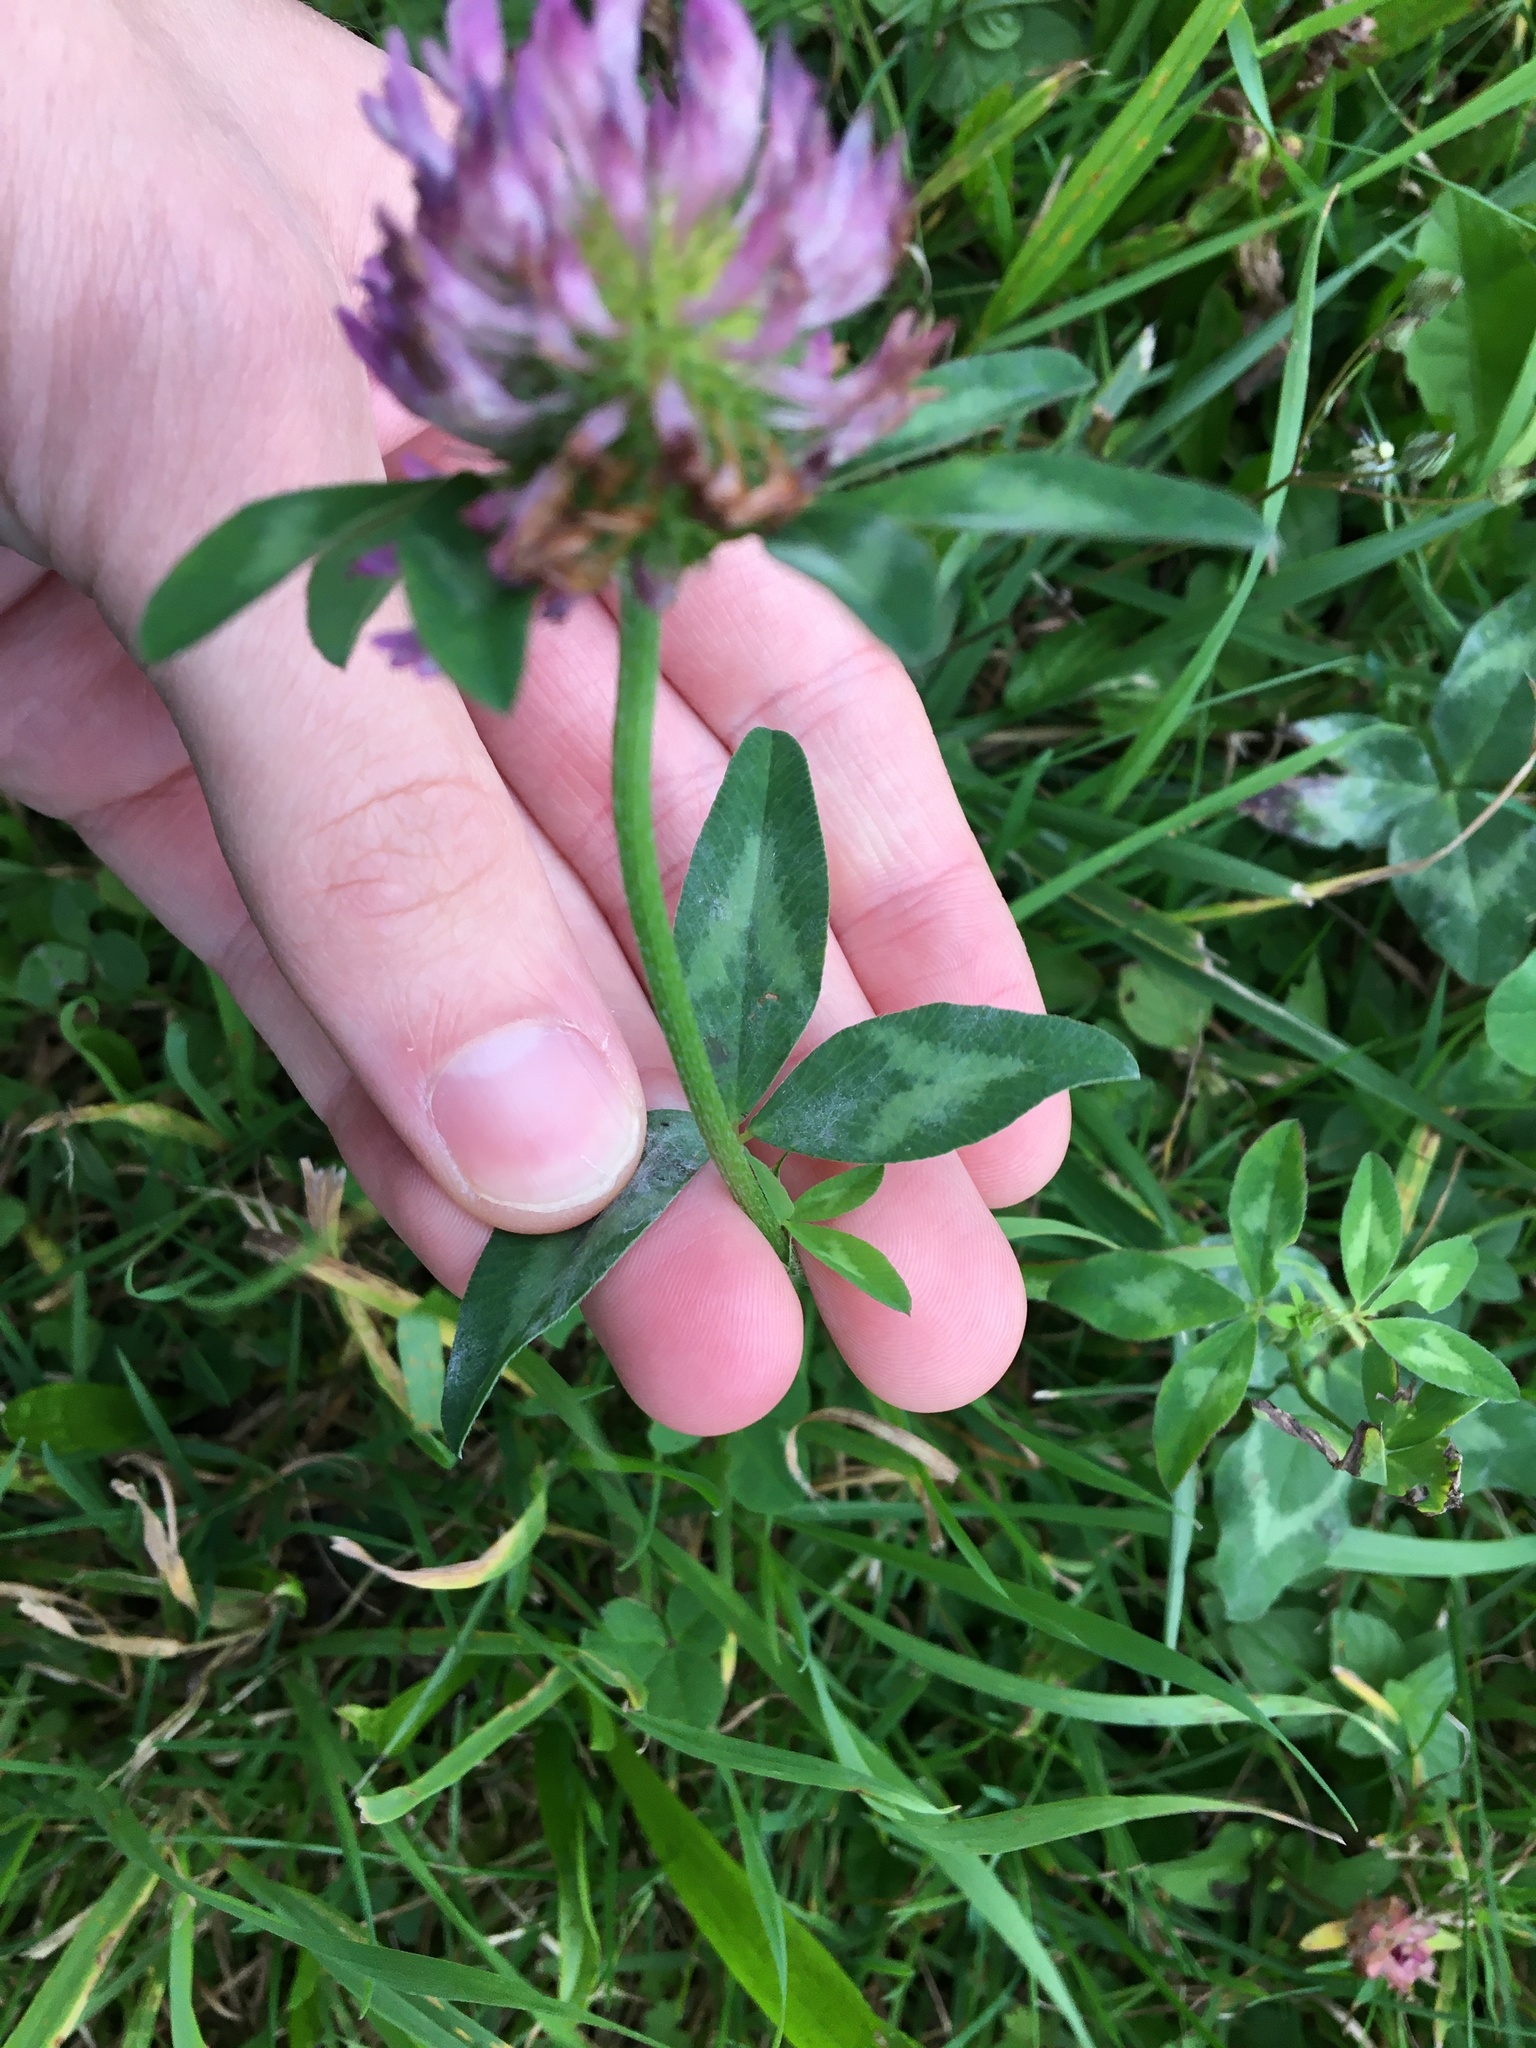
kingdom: Plantae
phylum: Tracheophyta
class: Magnoliopsida
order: Fabales
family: Fabaceae
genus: Trifolium
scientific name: Trifolium pratense
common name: Red clover
